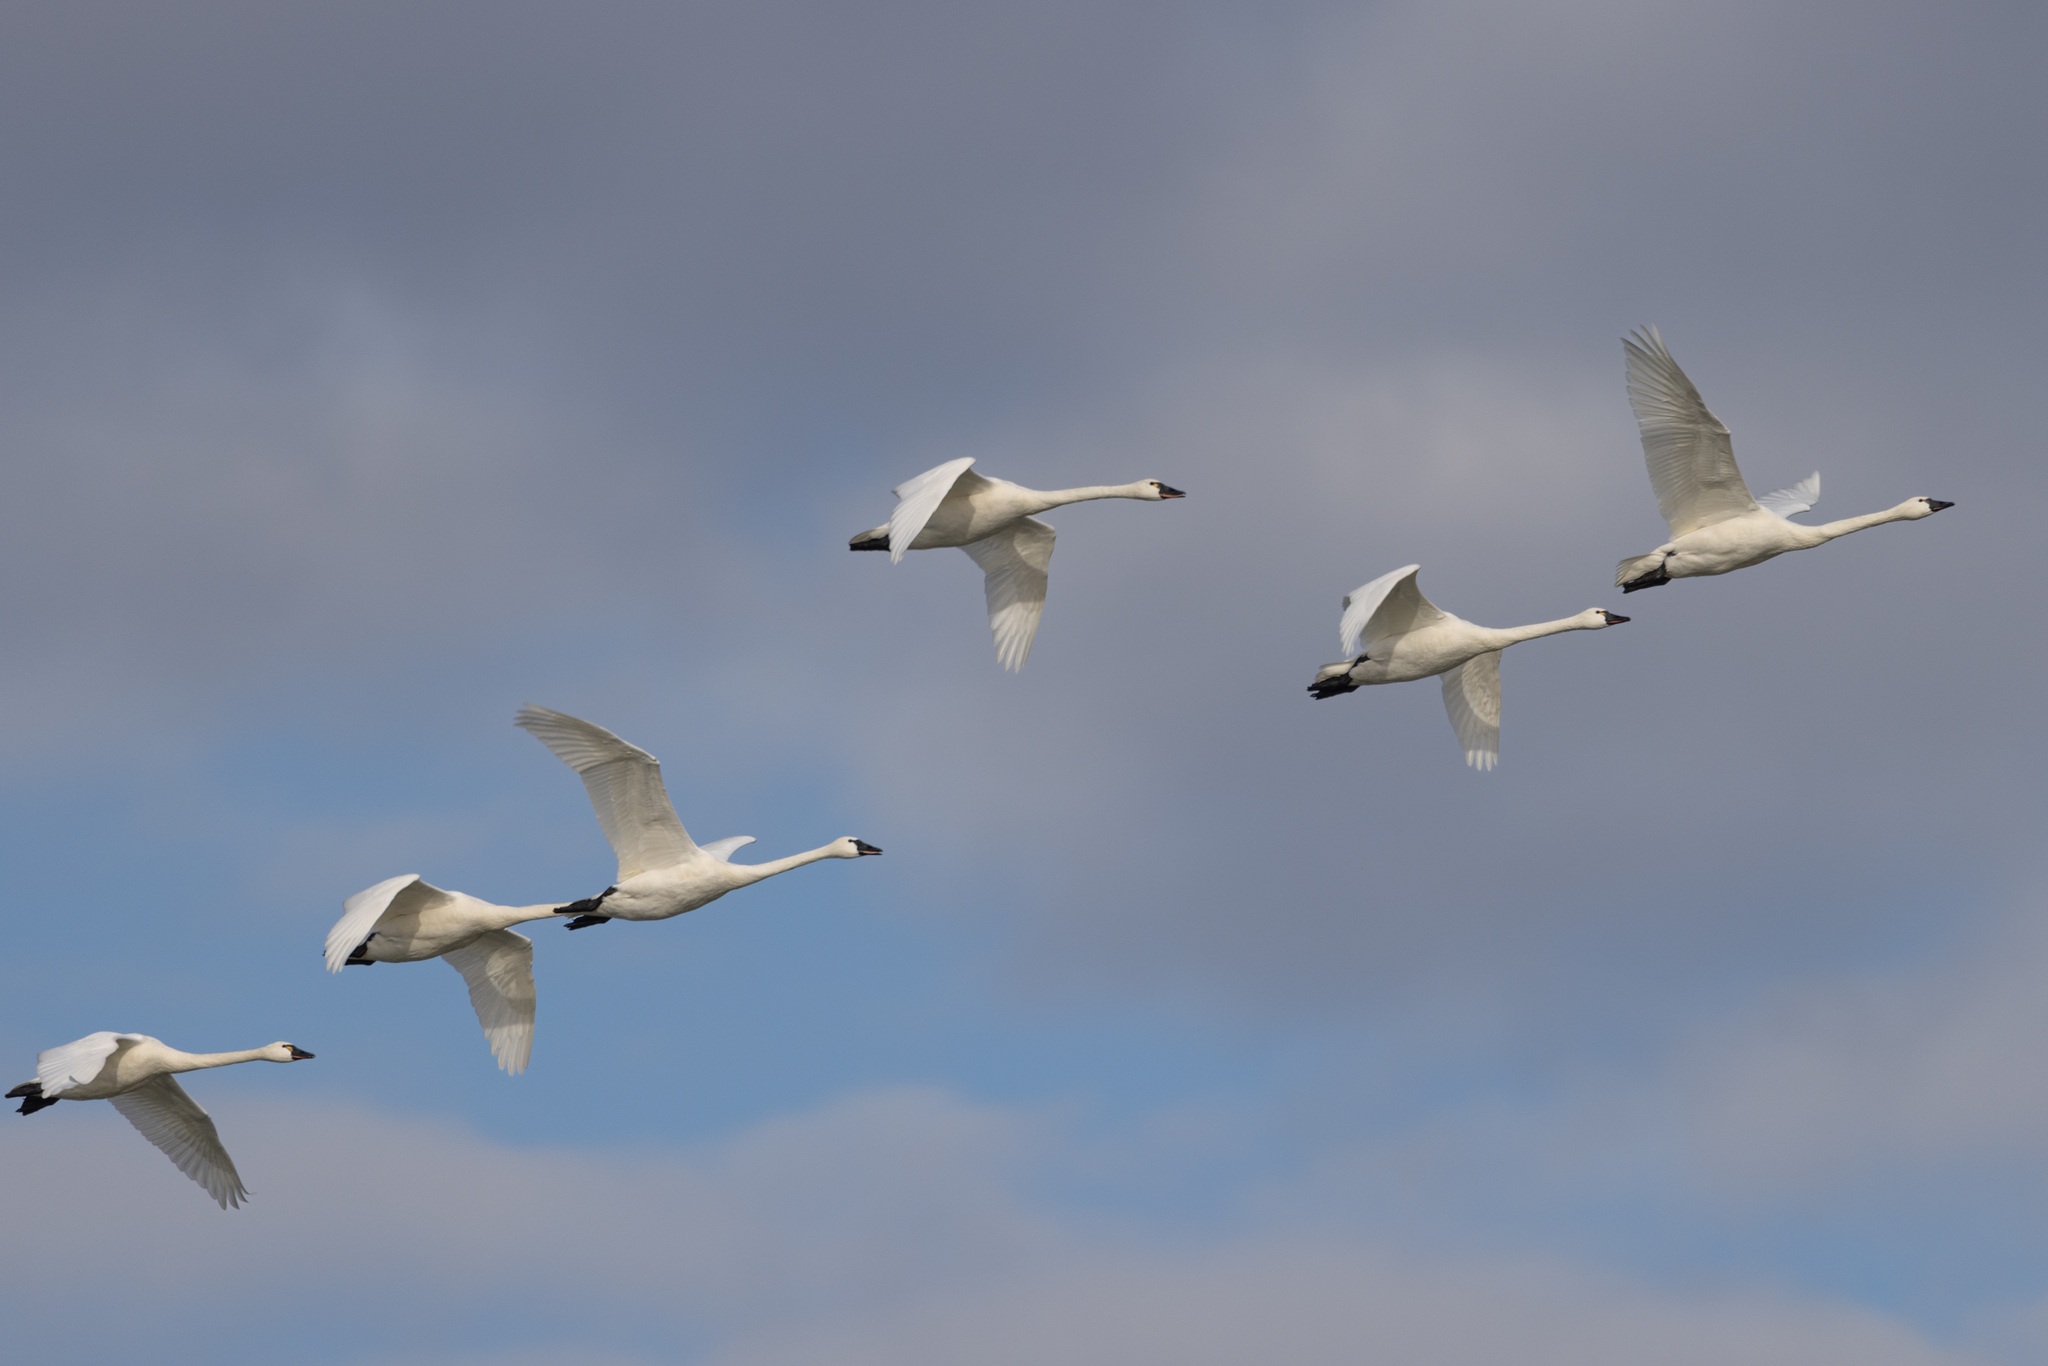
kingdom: Animalia
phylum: Chordata
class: Aves
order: Anseriformes
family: Anatidae
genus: Cygnus
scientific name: Cygnus columbianus
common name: Tundra swan
